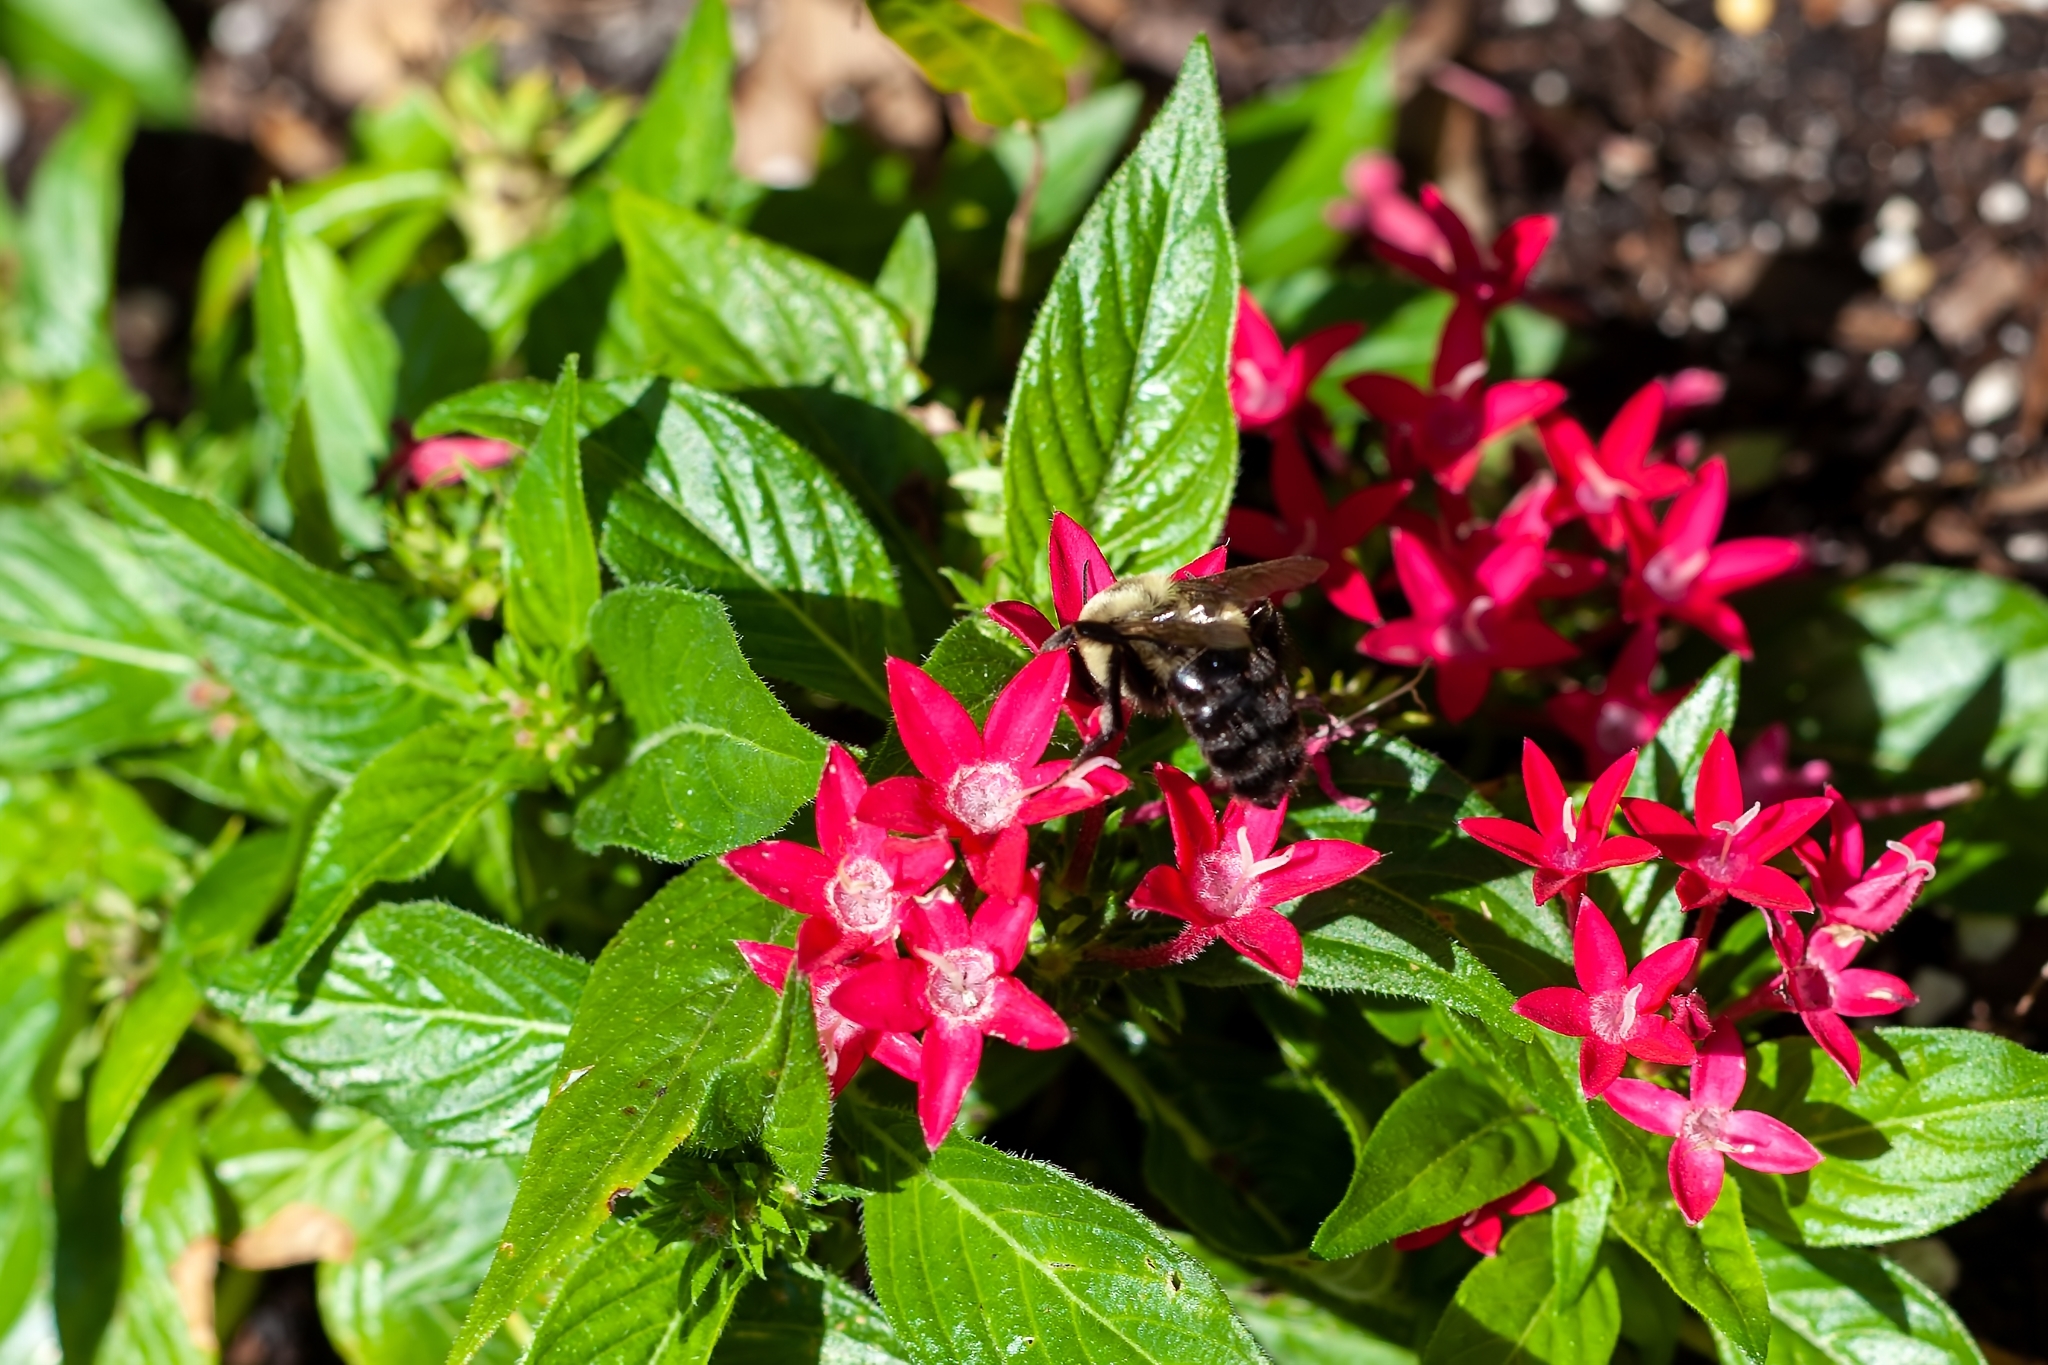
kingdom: Animalia
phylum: Arthropoda
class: Insecta
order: Hymenoptera
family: Apidae
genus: Bombus
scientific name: Bombus impatiens
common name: Common eastern bumble bee
